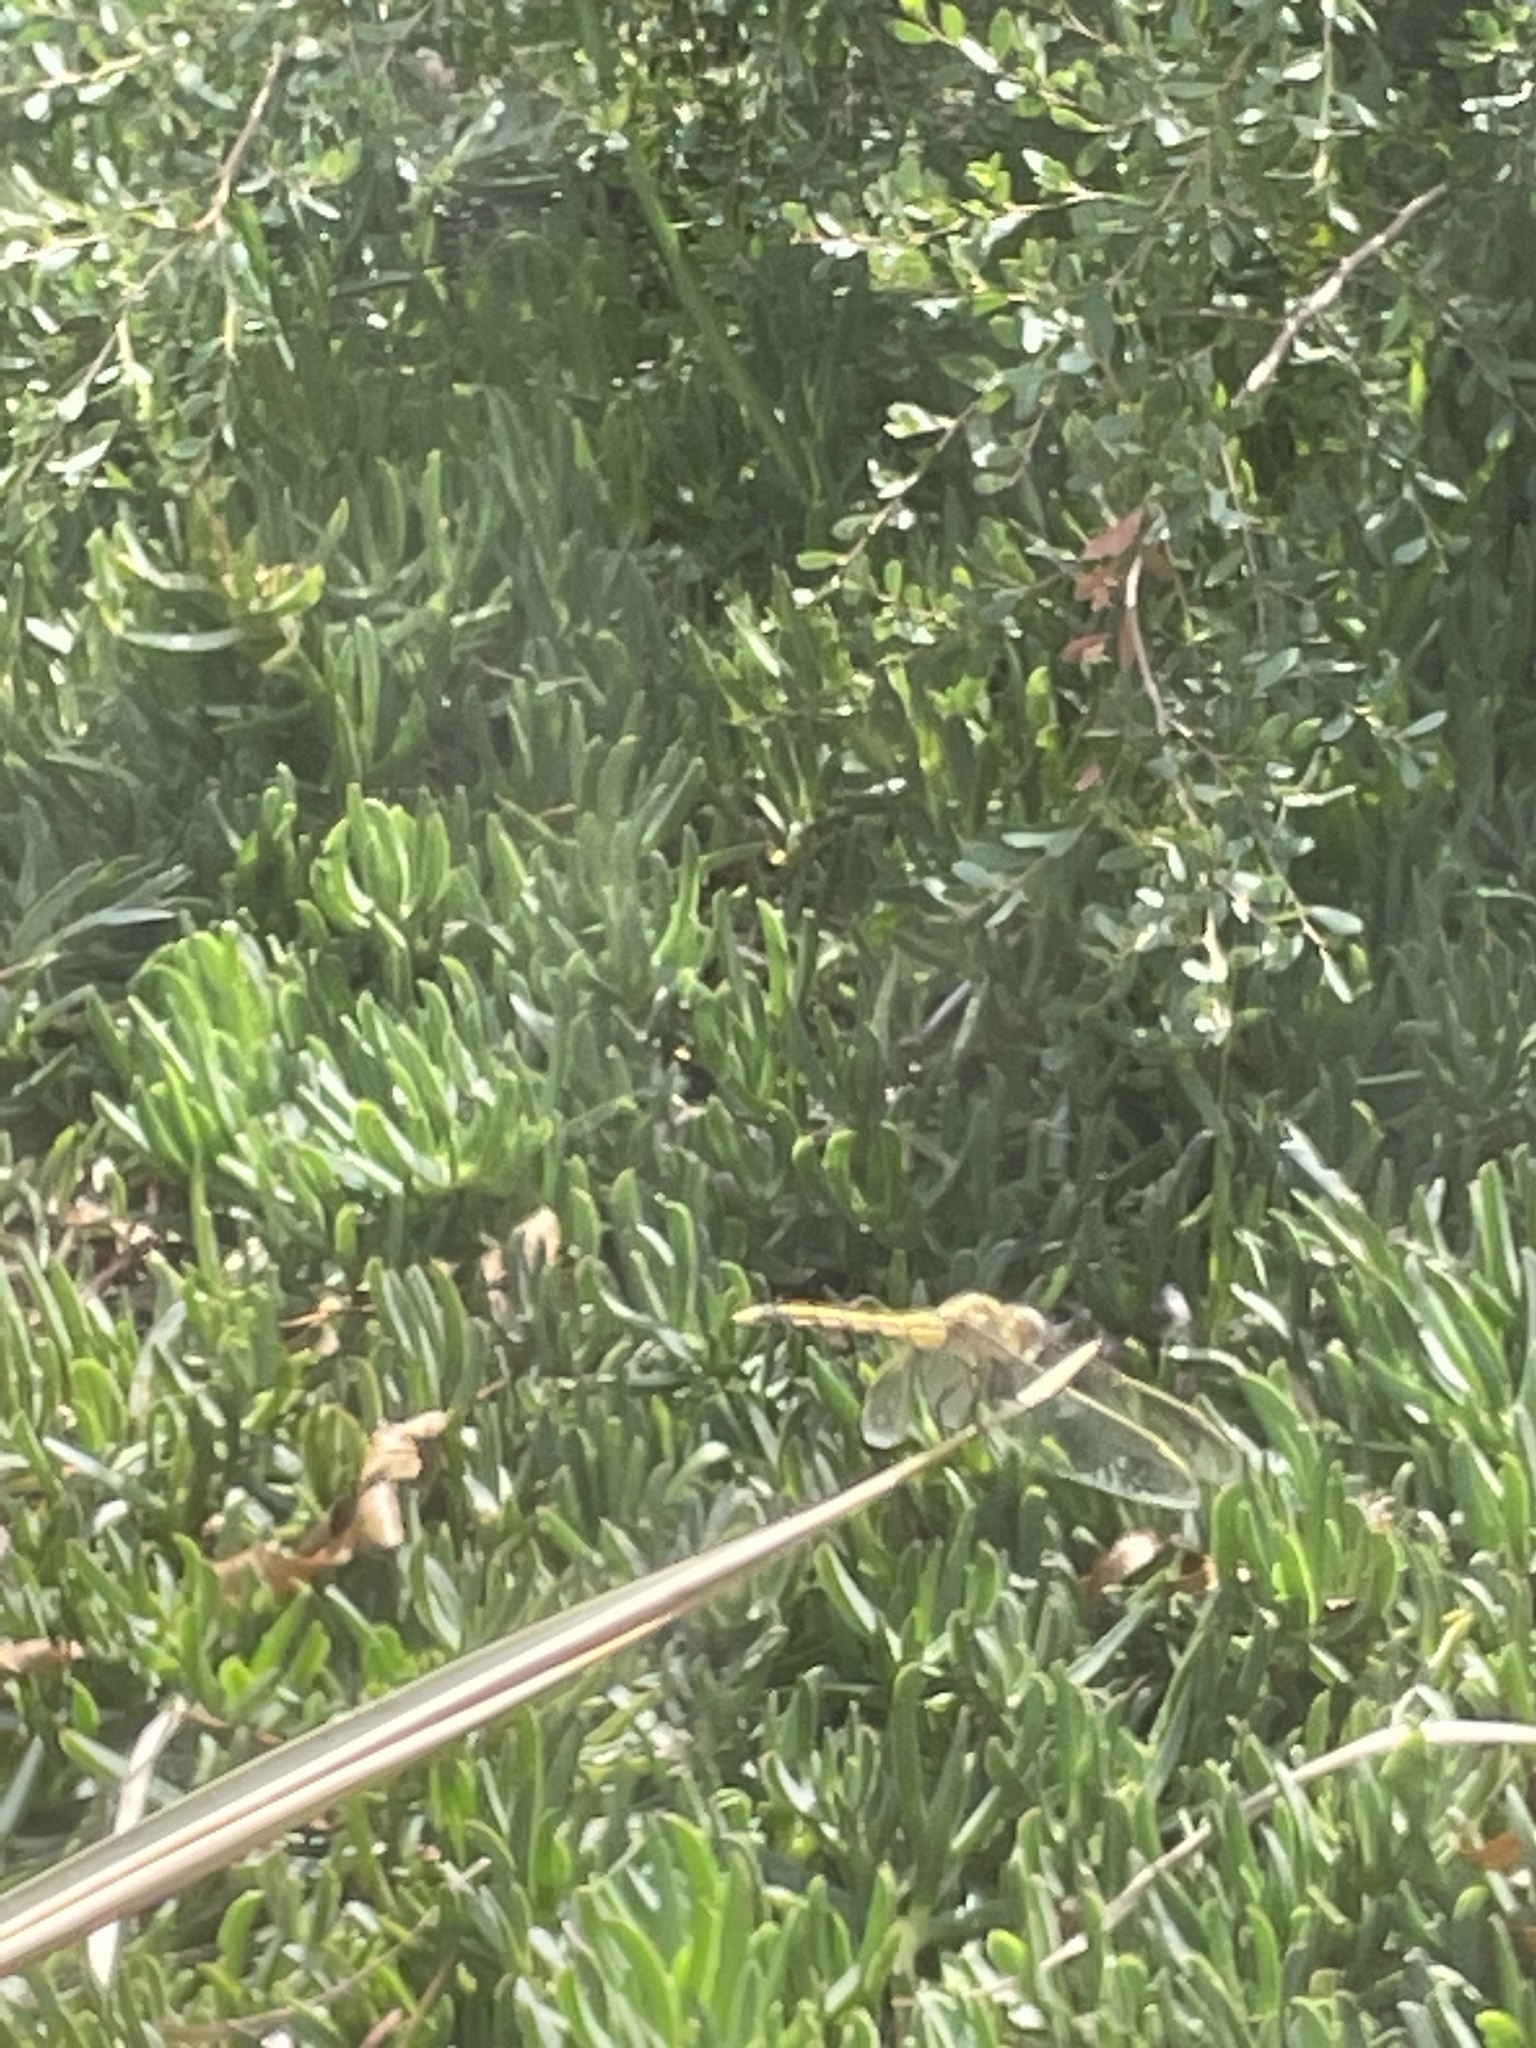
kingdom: Animalia
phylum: Arthropoda
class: Insecta
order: Odonata
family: Libellulidae
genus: Orthetrum
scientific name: Orthetrum caledonicum
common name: Blue skimmer
